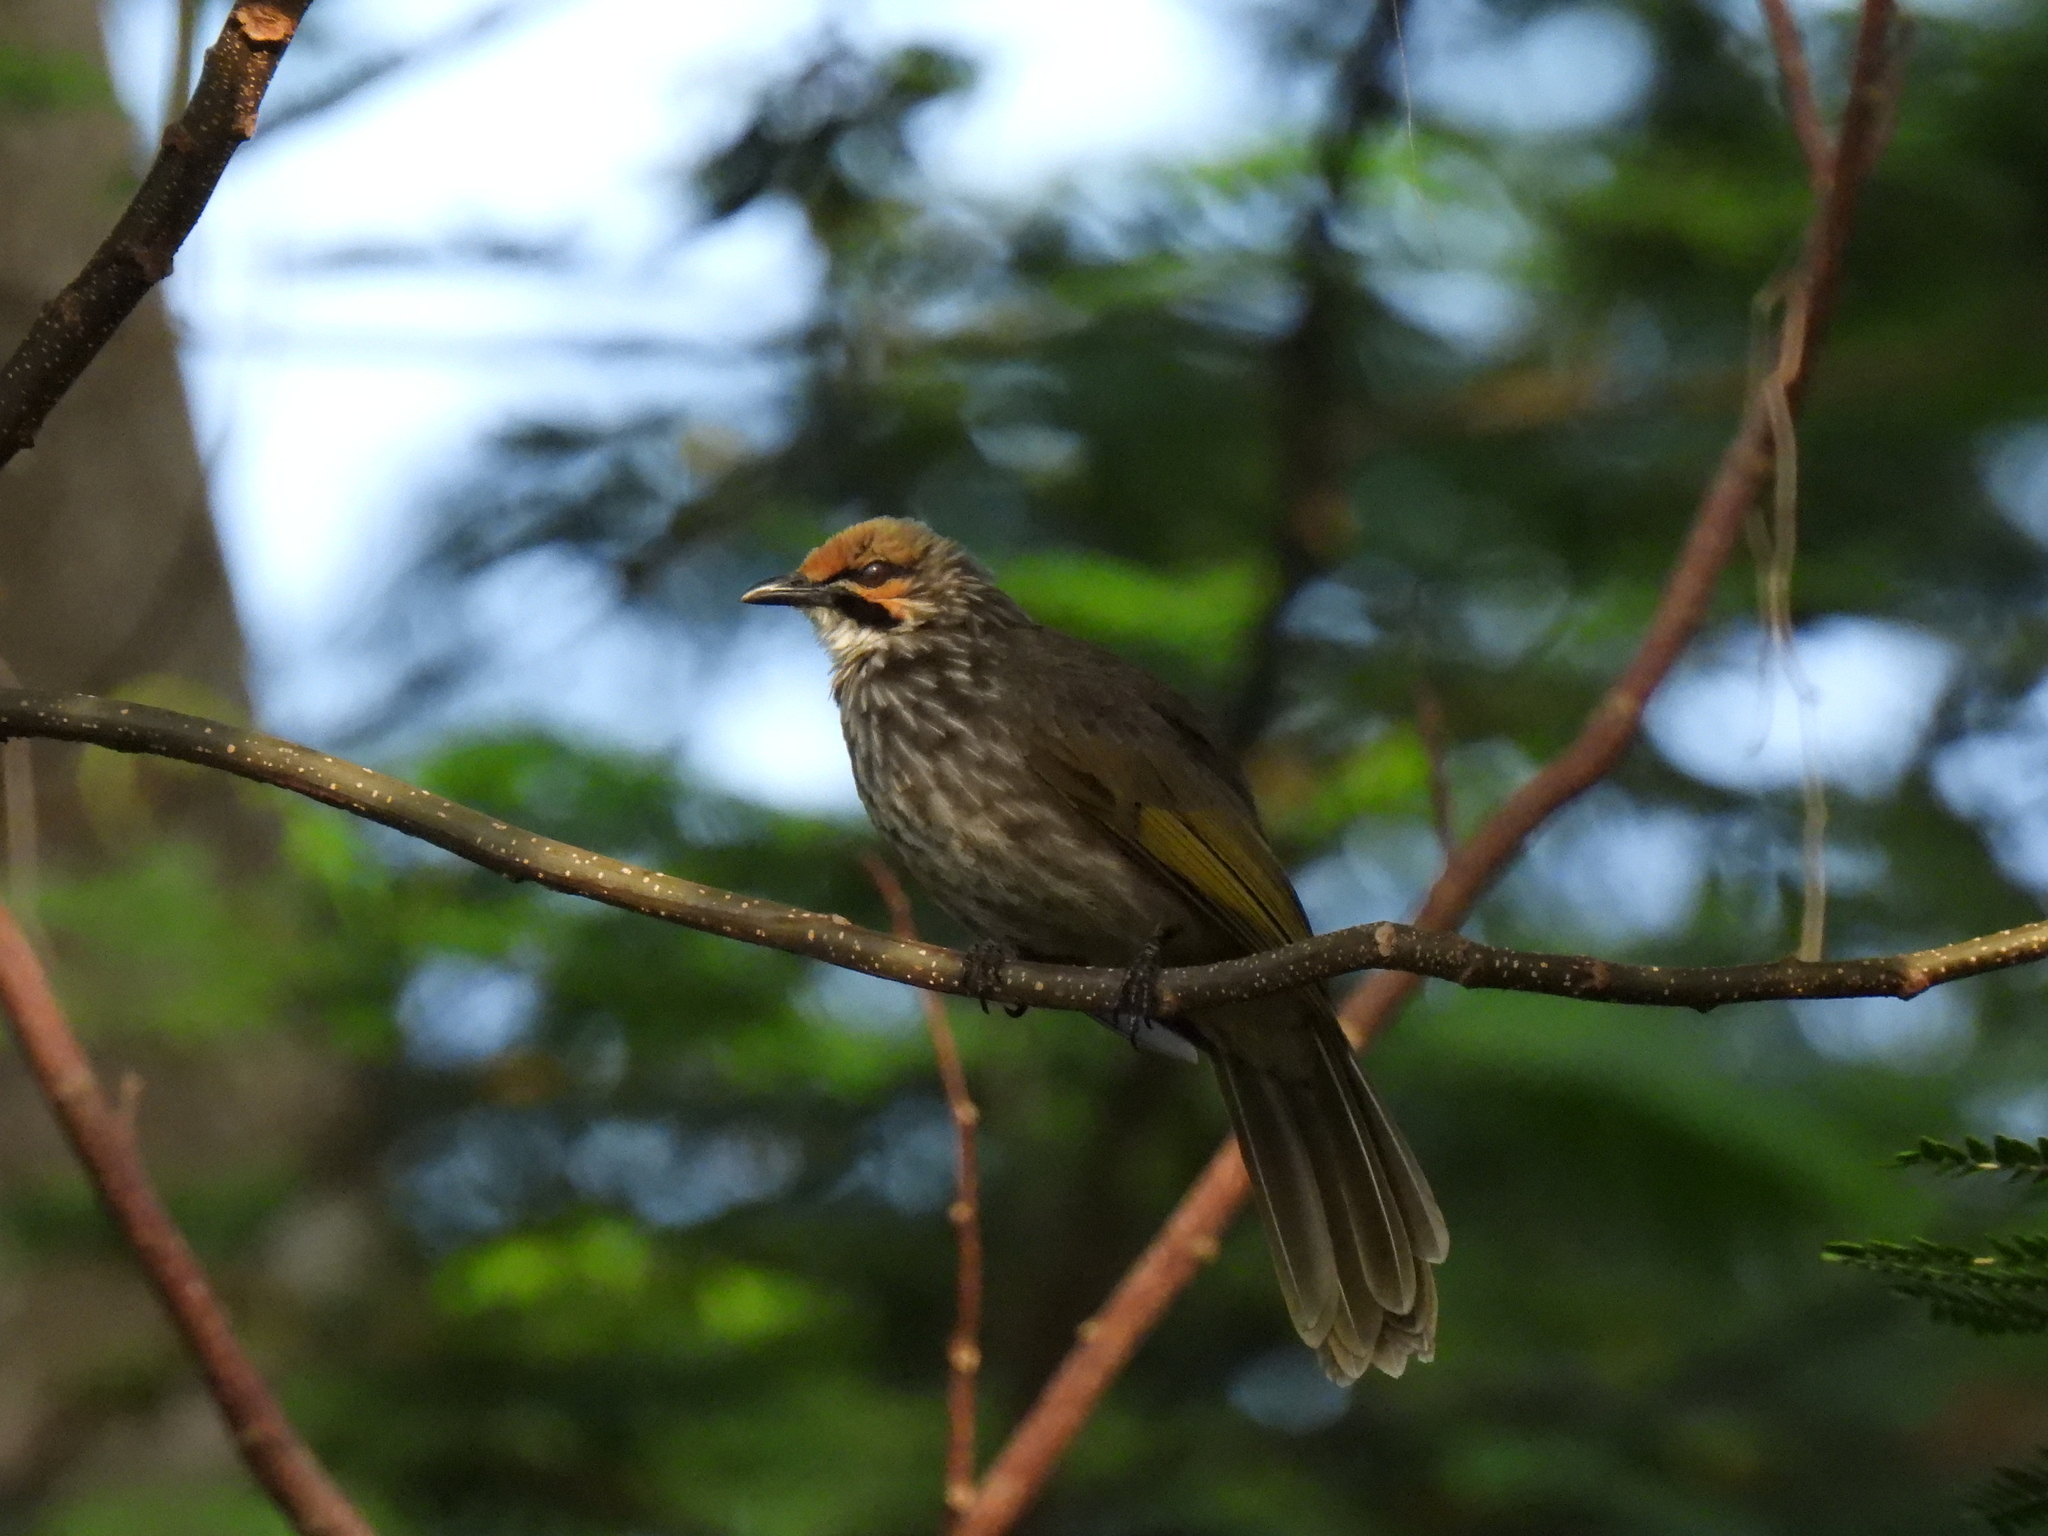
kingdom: Animalia
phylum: Chordata
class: Aves
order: Passeriformes
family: Pycnonotidae
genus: Pycnonotus
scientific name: Pycnonotus zeylanicus
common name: Straw-headed bulbul
